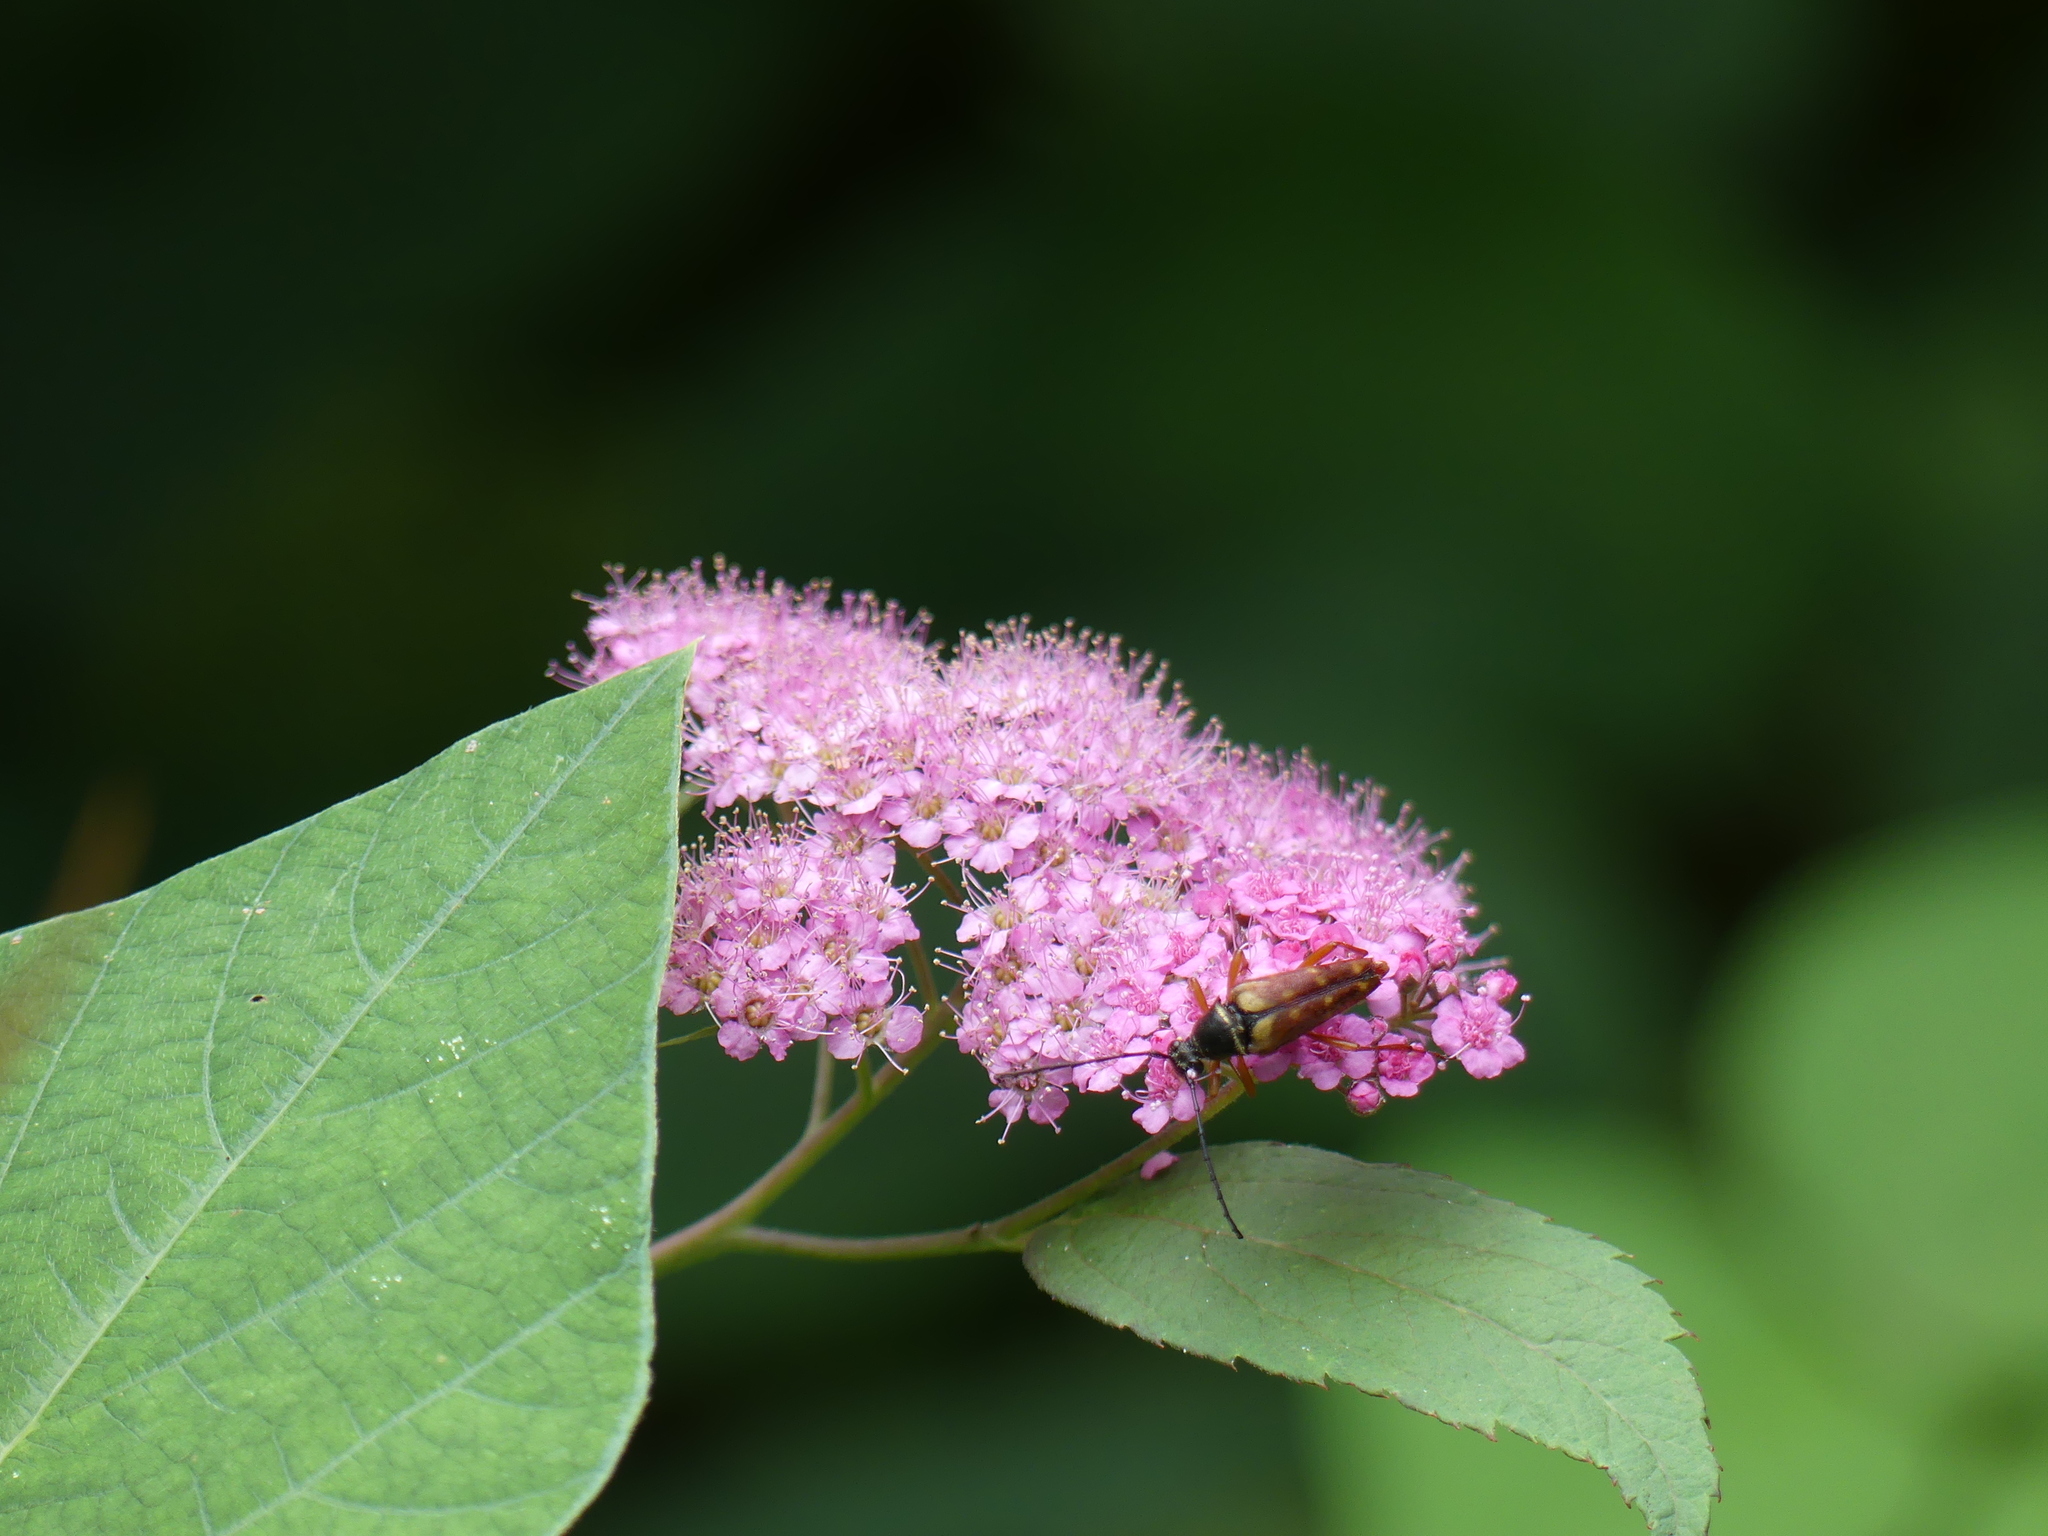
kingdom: Animalia
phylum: Arthropoda
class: Insecta
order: Coleoptera
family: Cerambycidae
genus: Typocerus
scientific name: Typocerus velutinus
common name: Banded longhorn beetle
